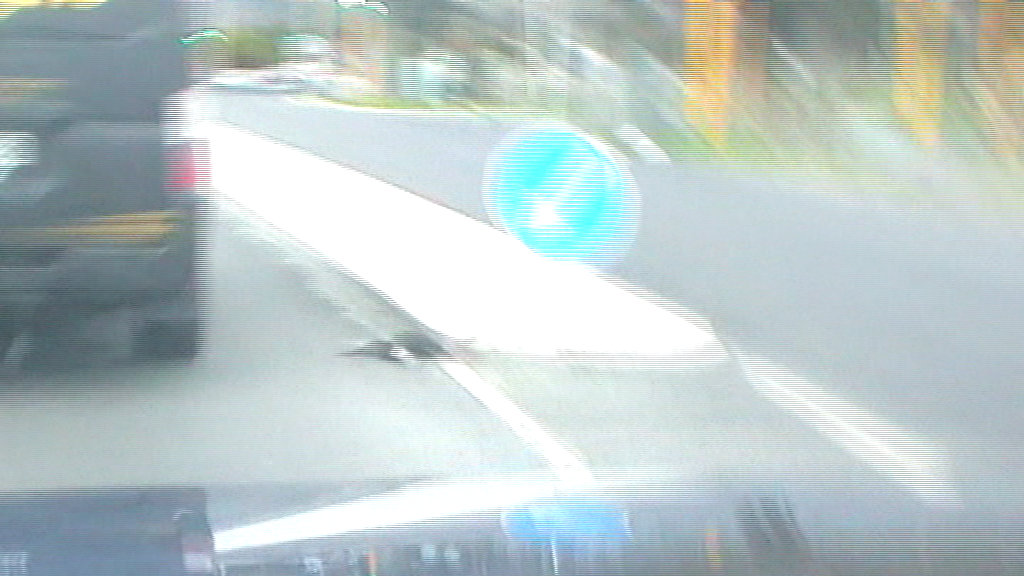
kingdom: Animalia
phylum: Chordata
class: Aves
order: Gruiformes
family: Rallidae
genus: Porphyrio
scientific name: Porphyrio melanotus
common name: Australasian swamphen
